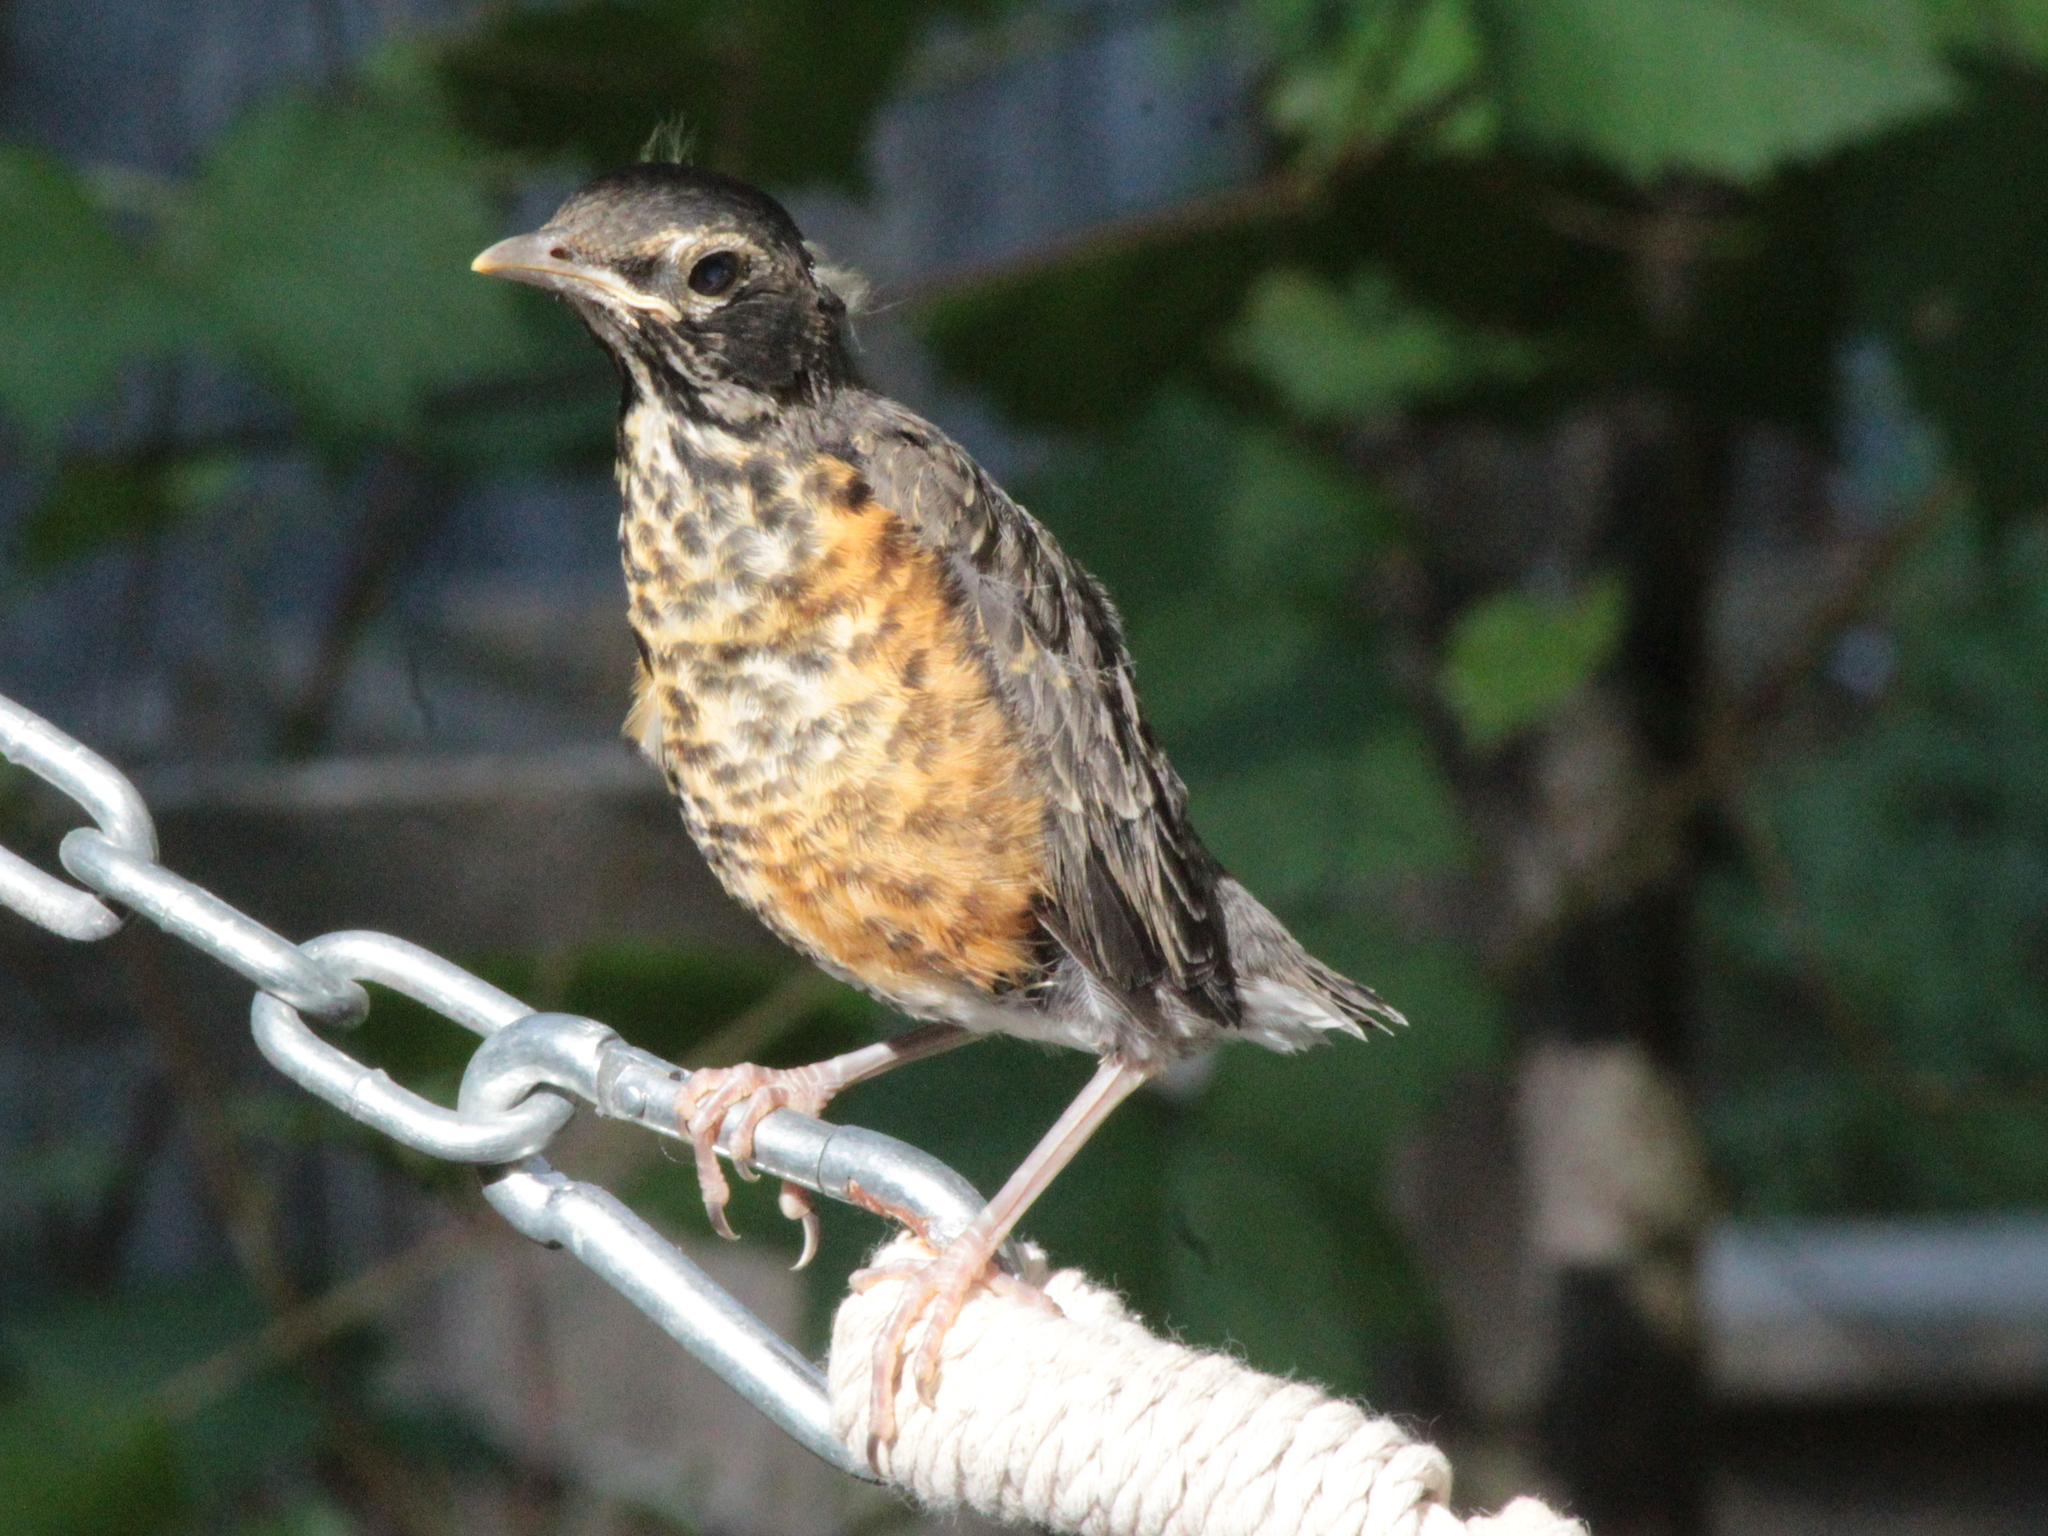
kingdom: Animalia
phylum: Chordata
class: Aves
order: Passeriformes
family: Turdidae
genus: Turdus
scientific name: Turdus migratorius
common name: American robin
